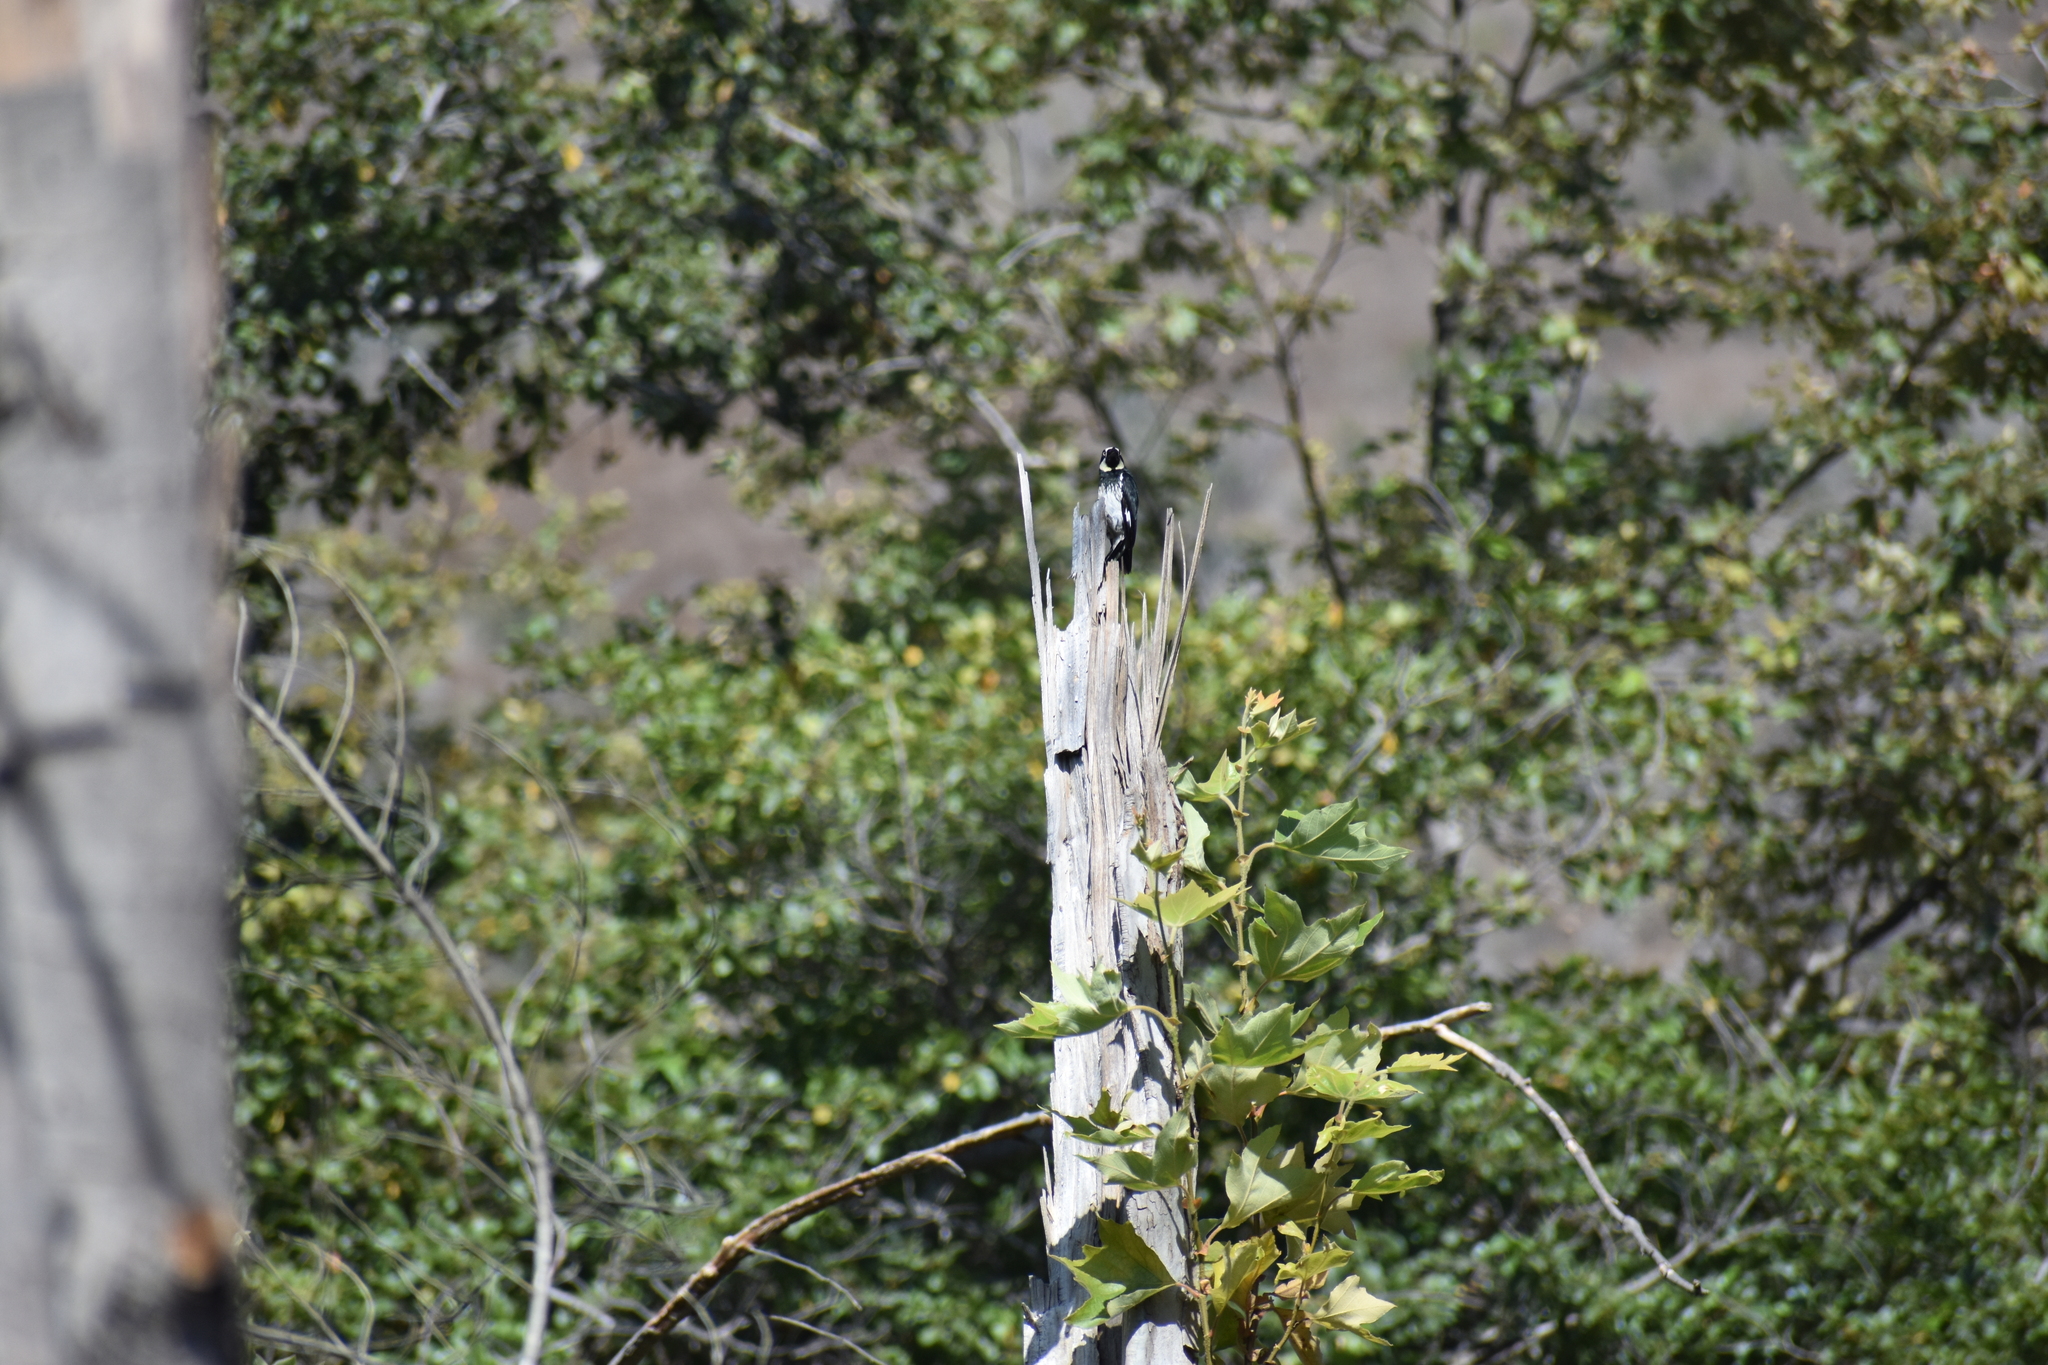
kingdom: Animalia
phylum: Chordata
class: Aves
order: Piciformes
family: Picidae
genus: Melanerpes
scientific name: Melanerpes formicivorus
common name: Acorn woodpecker
